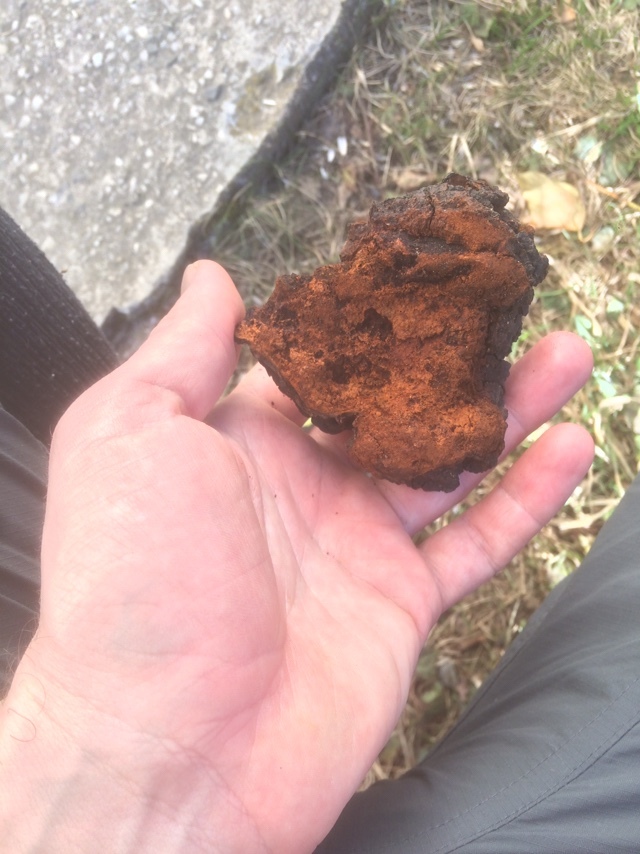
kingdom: Fungi
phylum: Basidiomycota
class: Agaricomycetes
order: Hymenochaetales
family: Hymenochaetaceae
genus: Inonotus
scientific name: Inonotus obliquus
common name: Chaga
